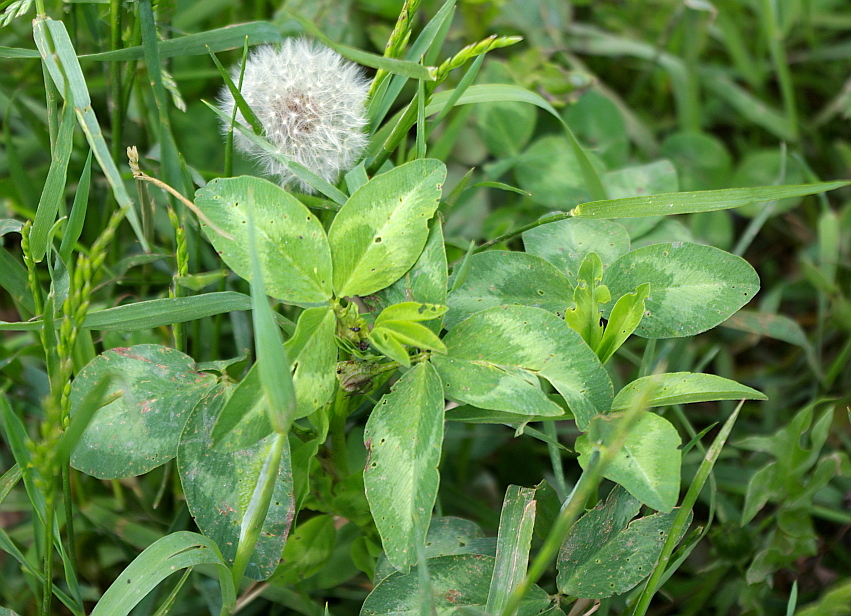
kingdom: Plantae
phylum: Tracheophyta
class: Magnoliopsida
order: Fabales
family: Fabaceae
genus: Trifolium
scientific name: Trifolium pratense
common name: Red clover
